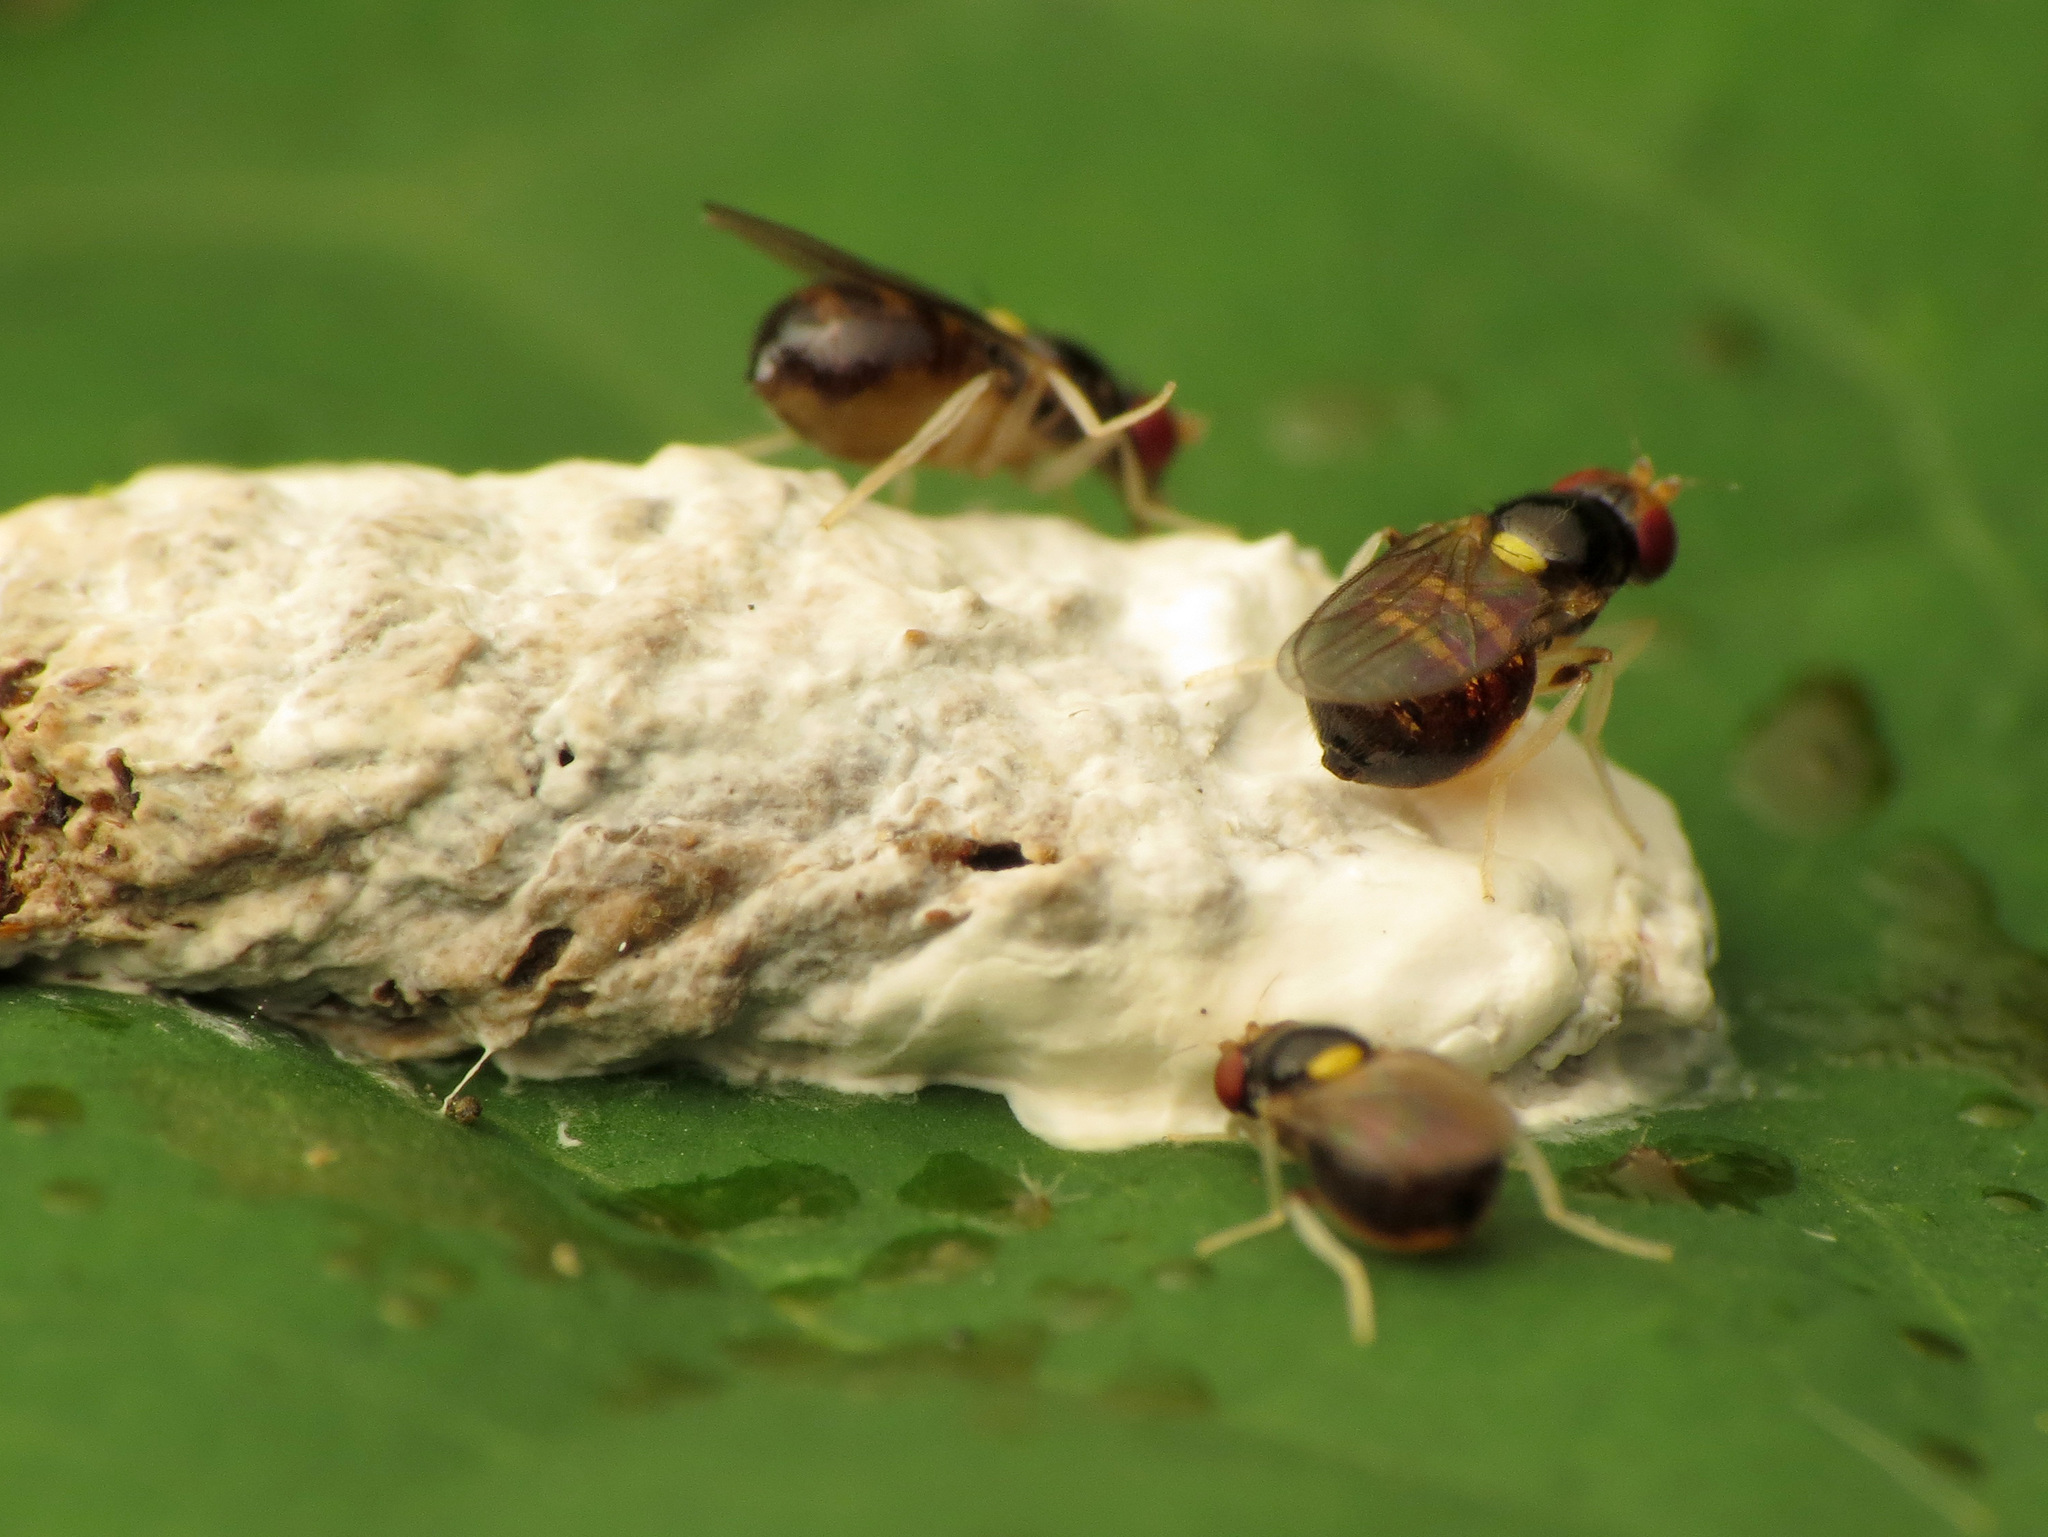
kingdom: Animalia
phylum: Arthropoda
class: Insecta
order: Diptera
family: Chloropidae
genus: Gaurax
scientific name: Gaurax apicalis
